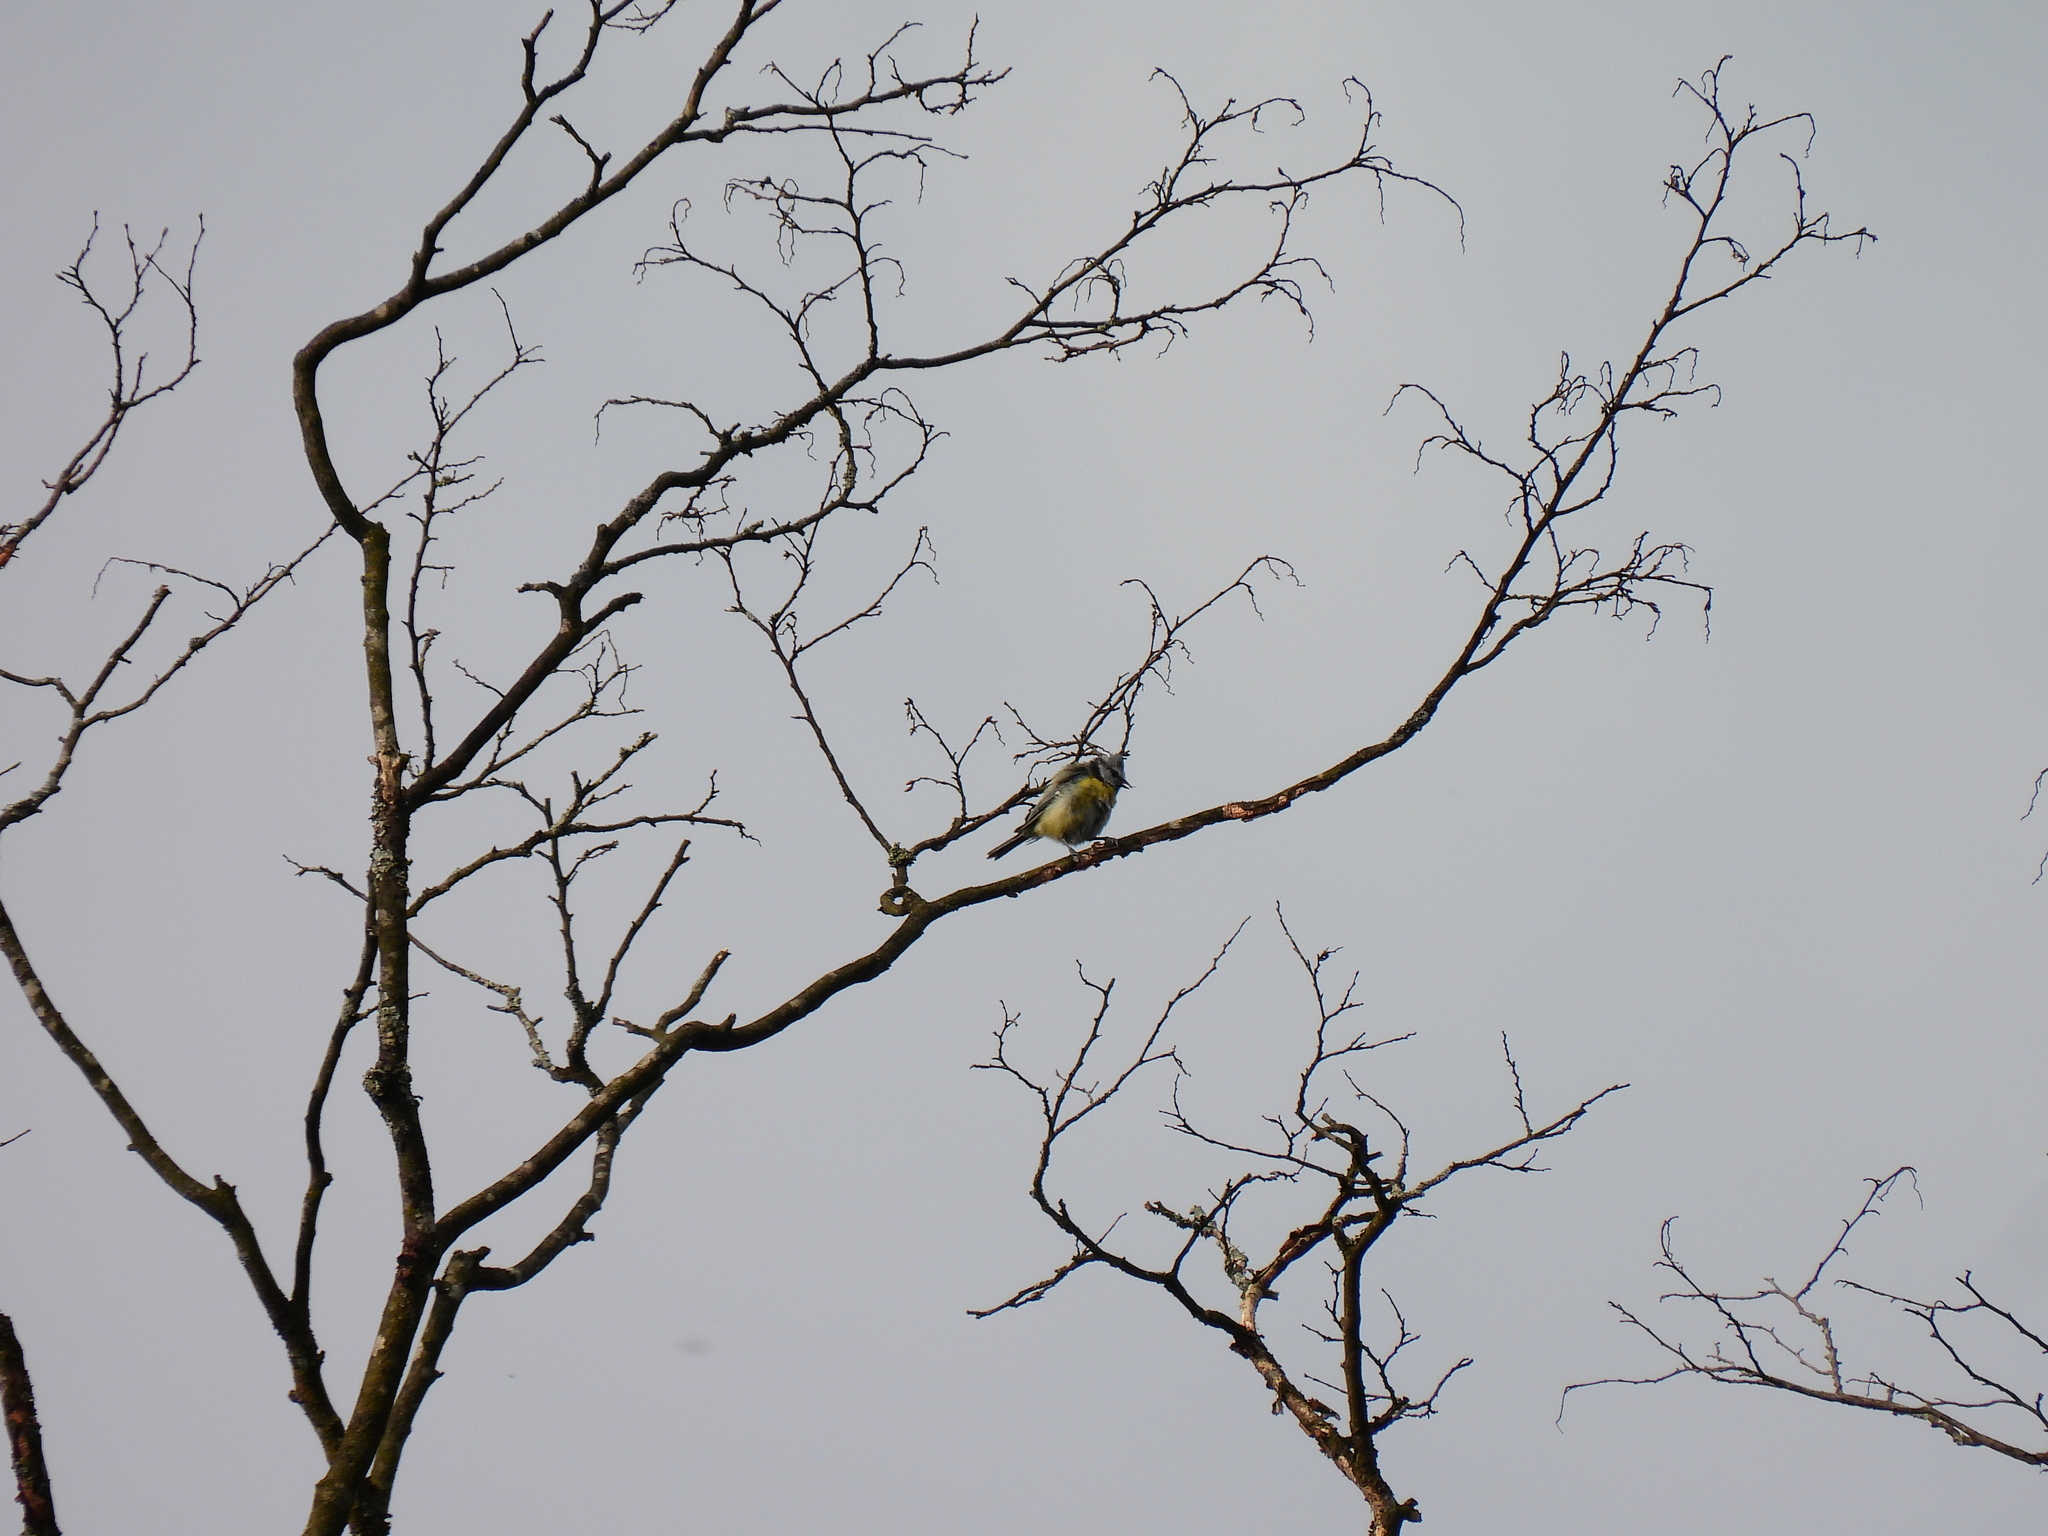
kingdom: Animalia
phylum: Chordata
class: Aves
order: Passeriformes
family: Paridae
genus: Cyanistes
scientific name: Cyanistes caeruleus
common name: Eurasian blue tit
